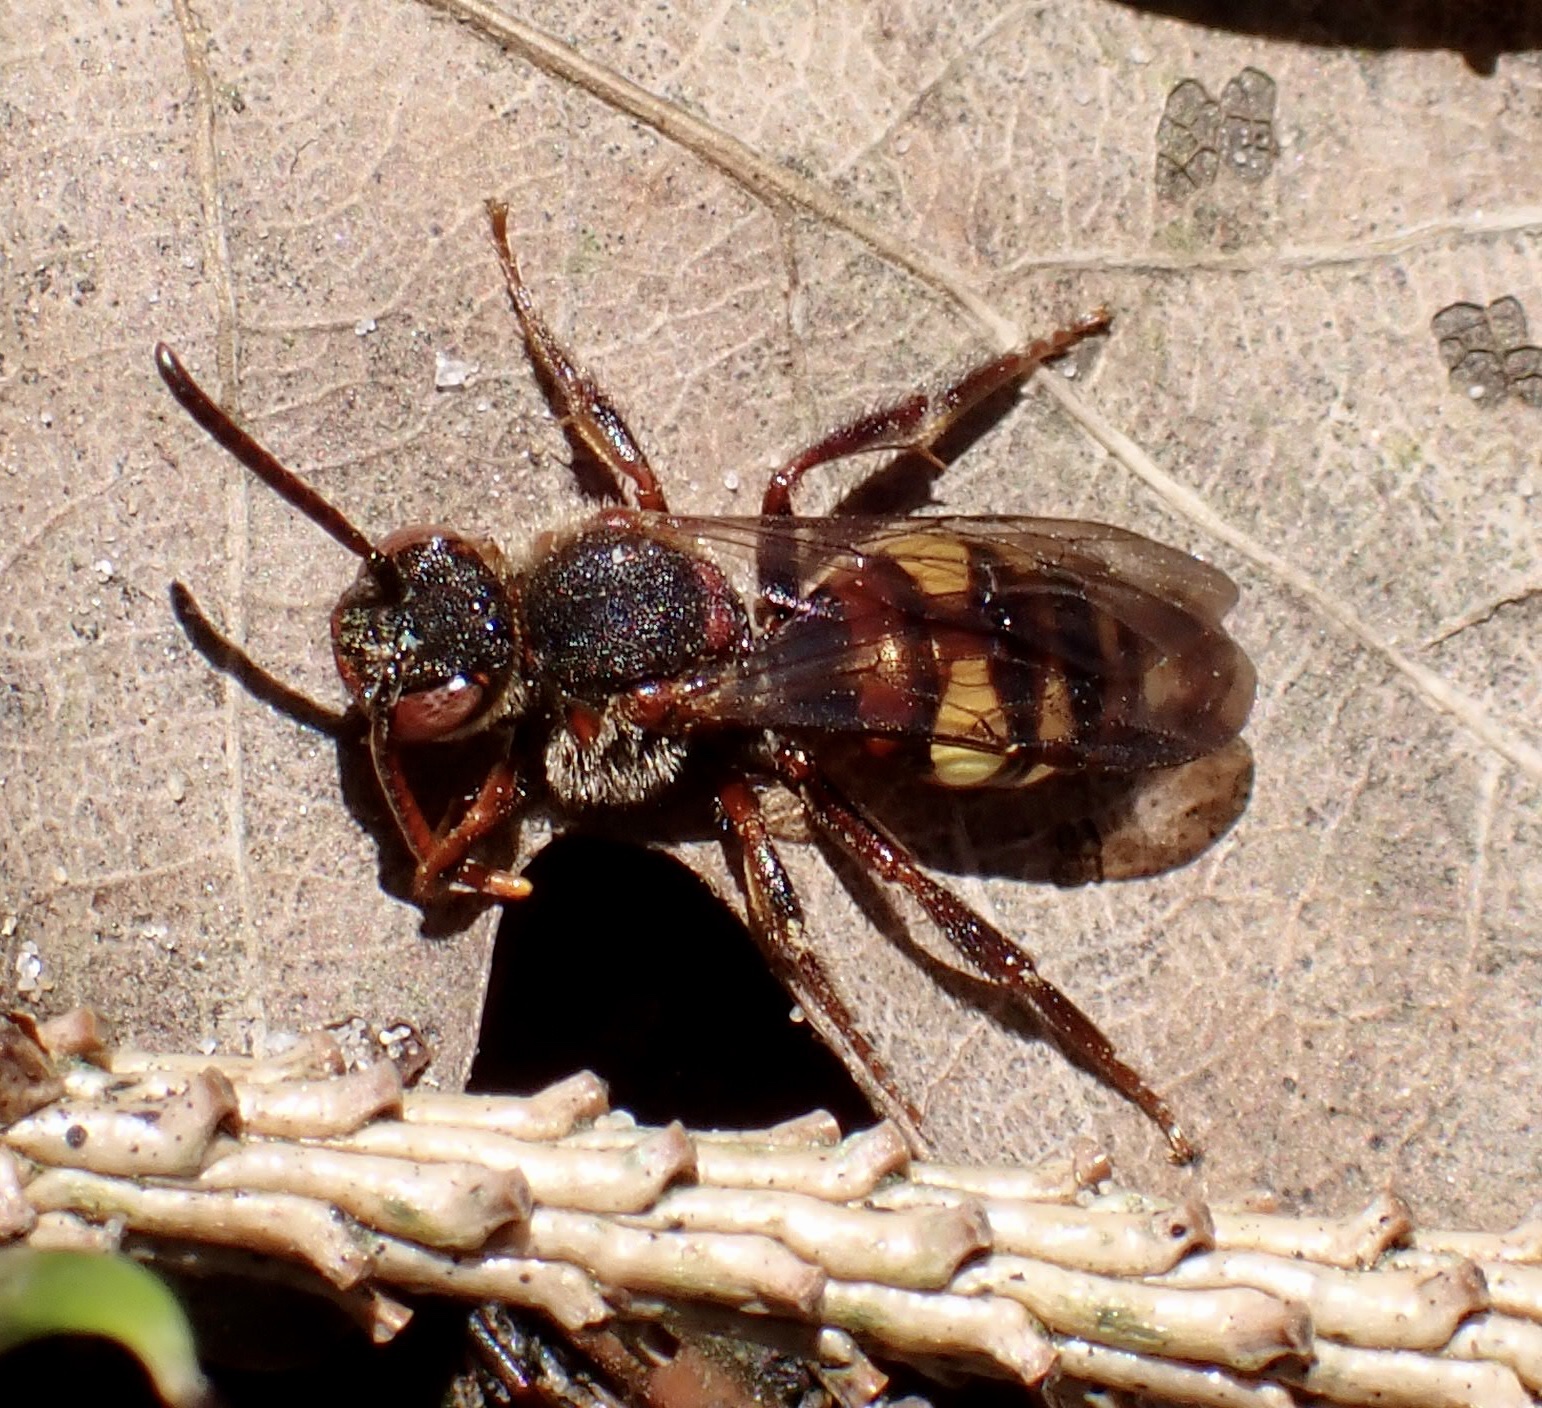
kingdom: Animalia
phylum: Arthropoda
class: Insecta
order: Hymenoptera
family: Apidae
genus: Nomada
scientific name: Nomada leucophthalma
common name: Early nomad bee
